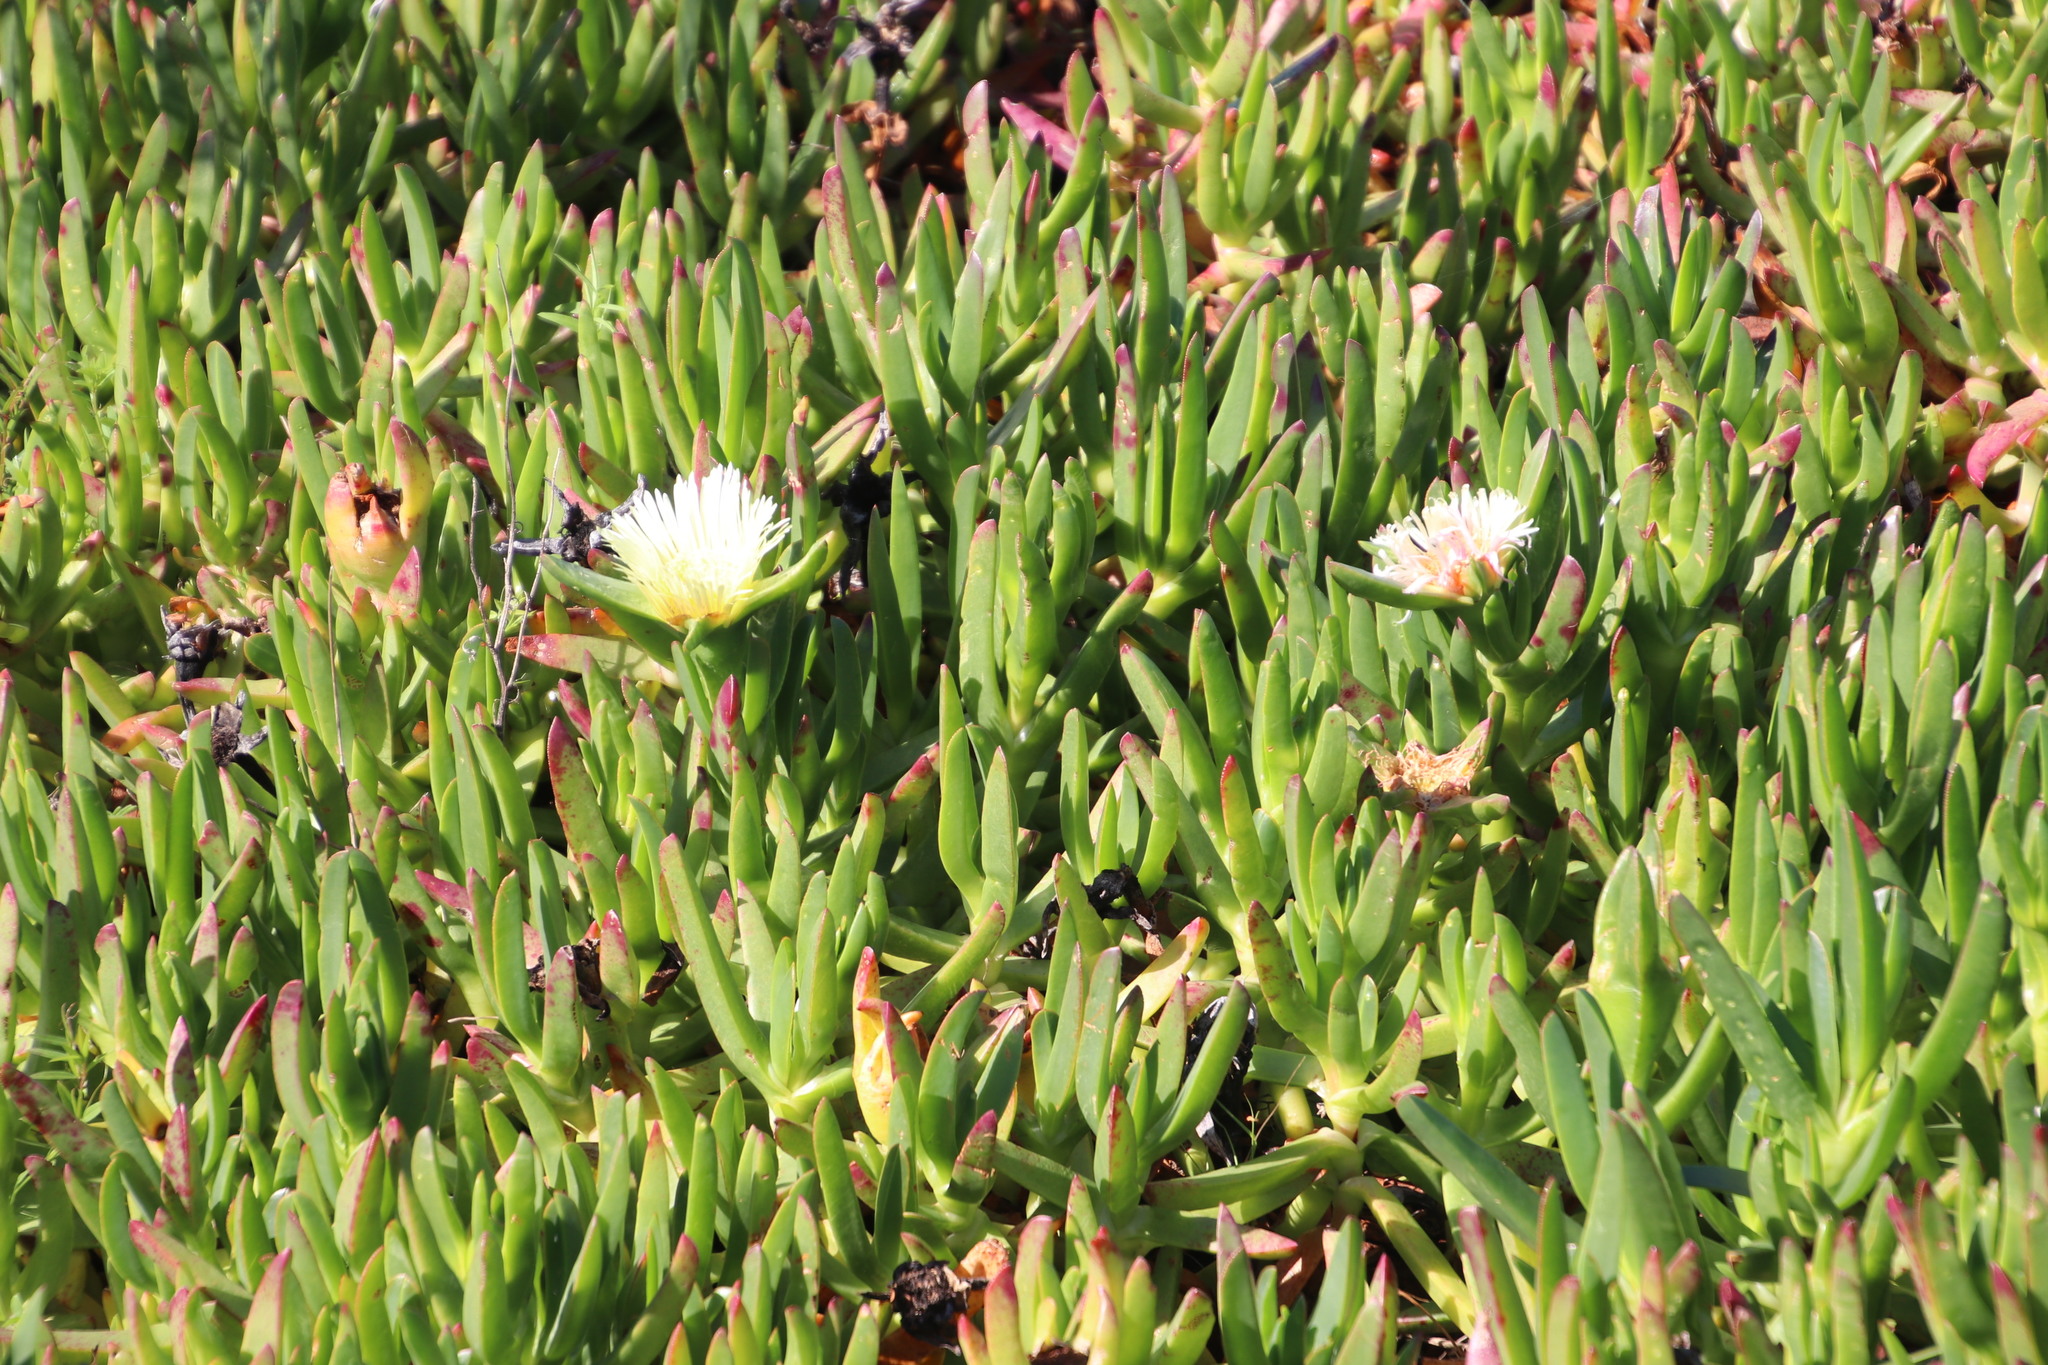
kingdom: Plantae
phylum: Tracheophyta
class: Magnoliopsida
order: Caryophyllales
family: Aizoaceae
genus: Carpobrotus
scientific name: Carpobrotus edulis
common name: Hottentot-fig
